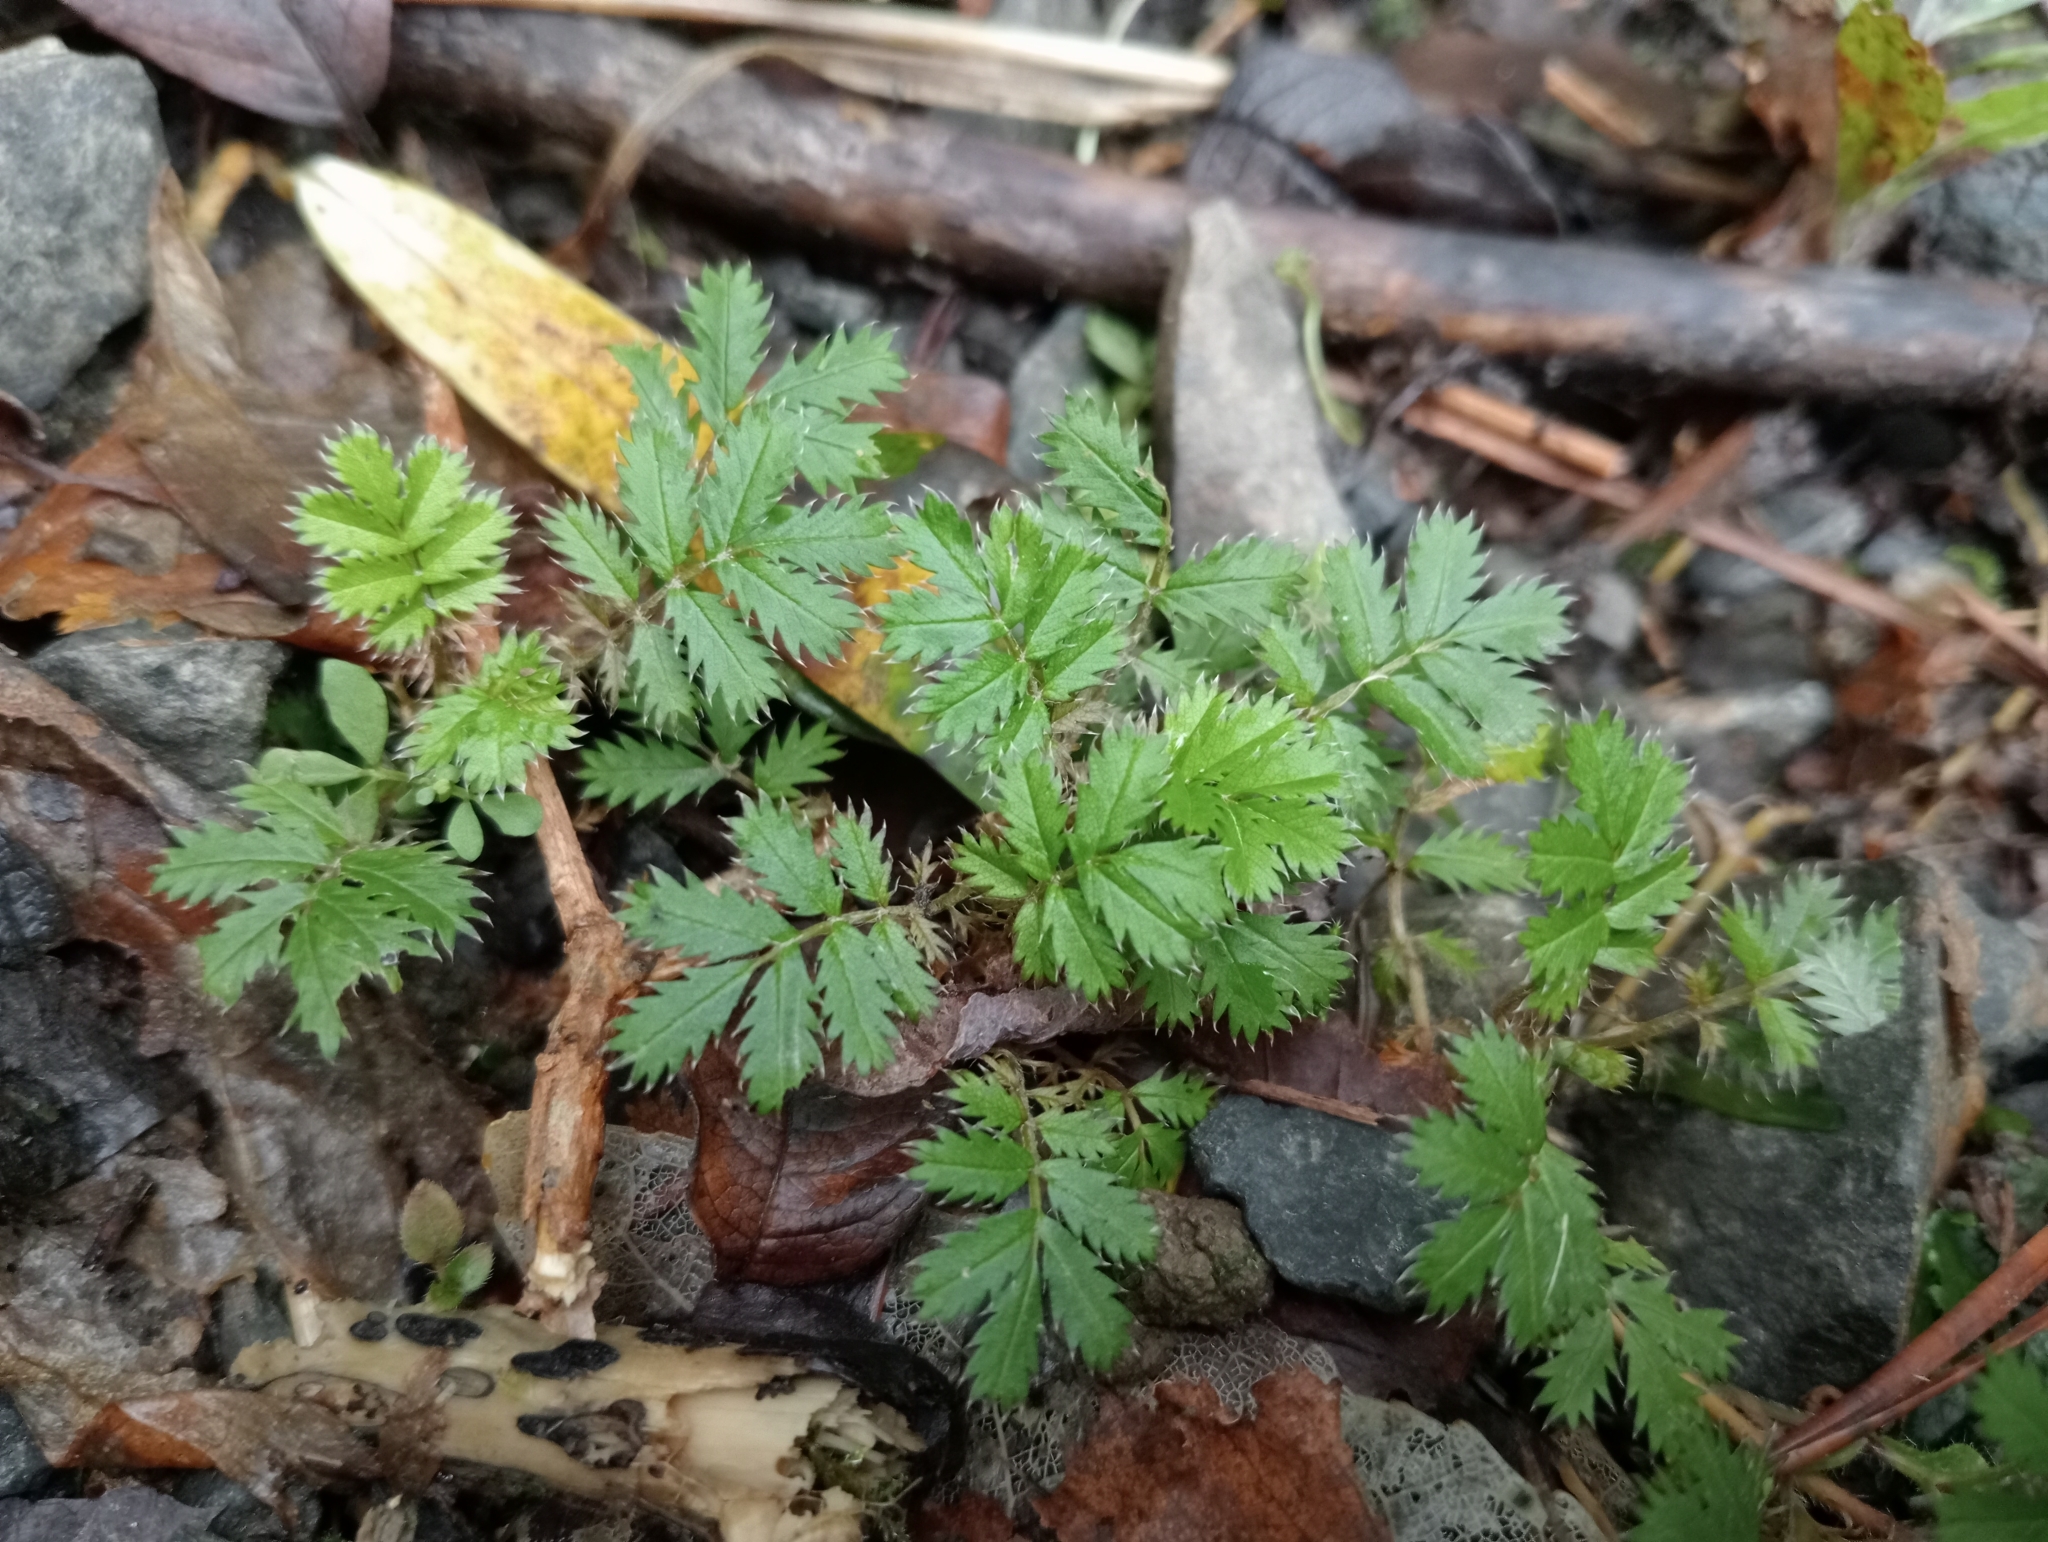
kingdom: Plantae
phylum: Tracheophyta
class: Magnoliopsida
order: Rosales
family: Rosaceae
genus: Acaena
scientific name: Acaena anserinifolia
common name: Bronze pirri-pirri-bur
